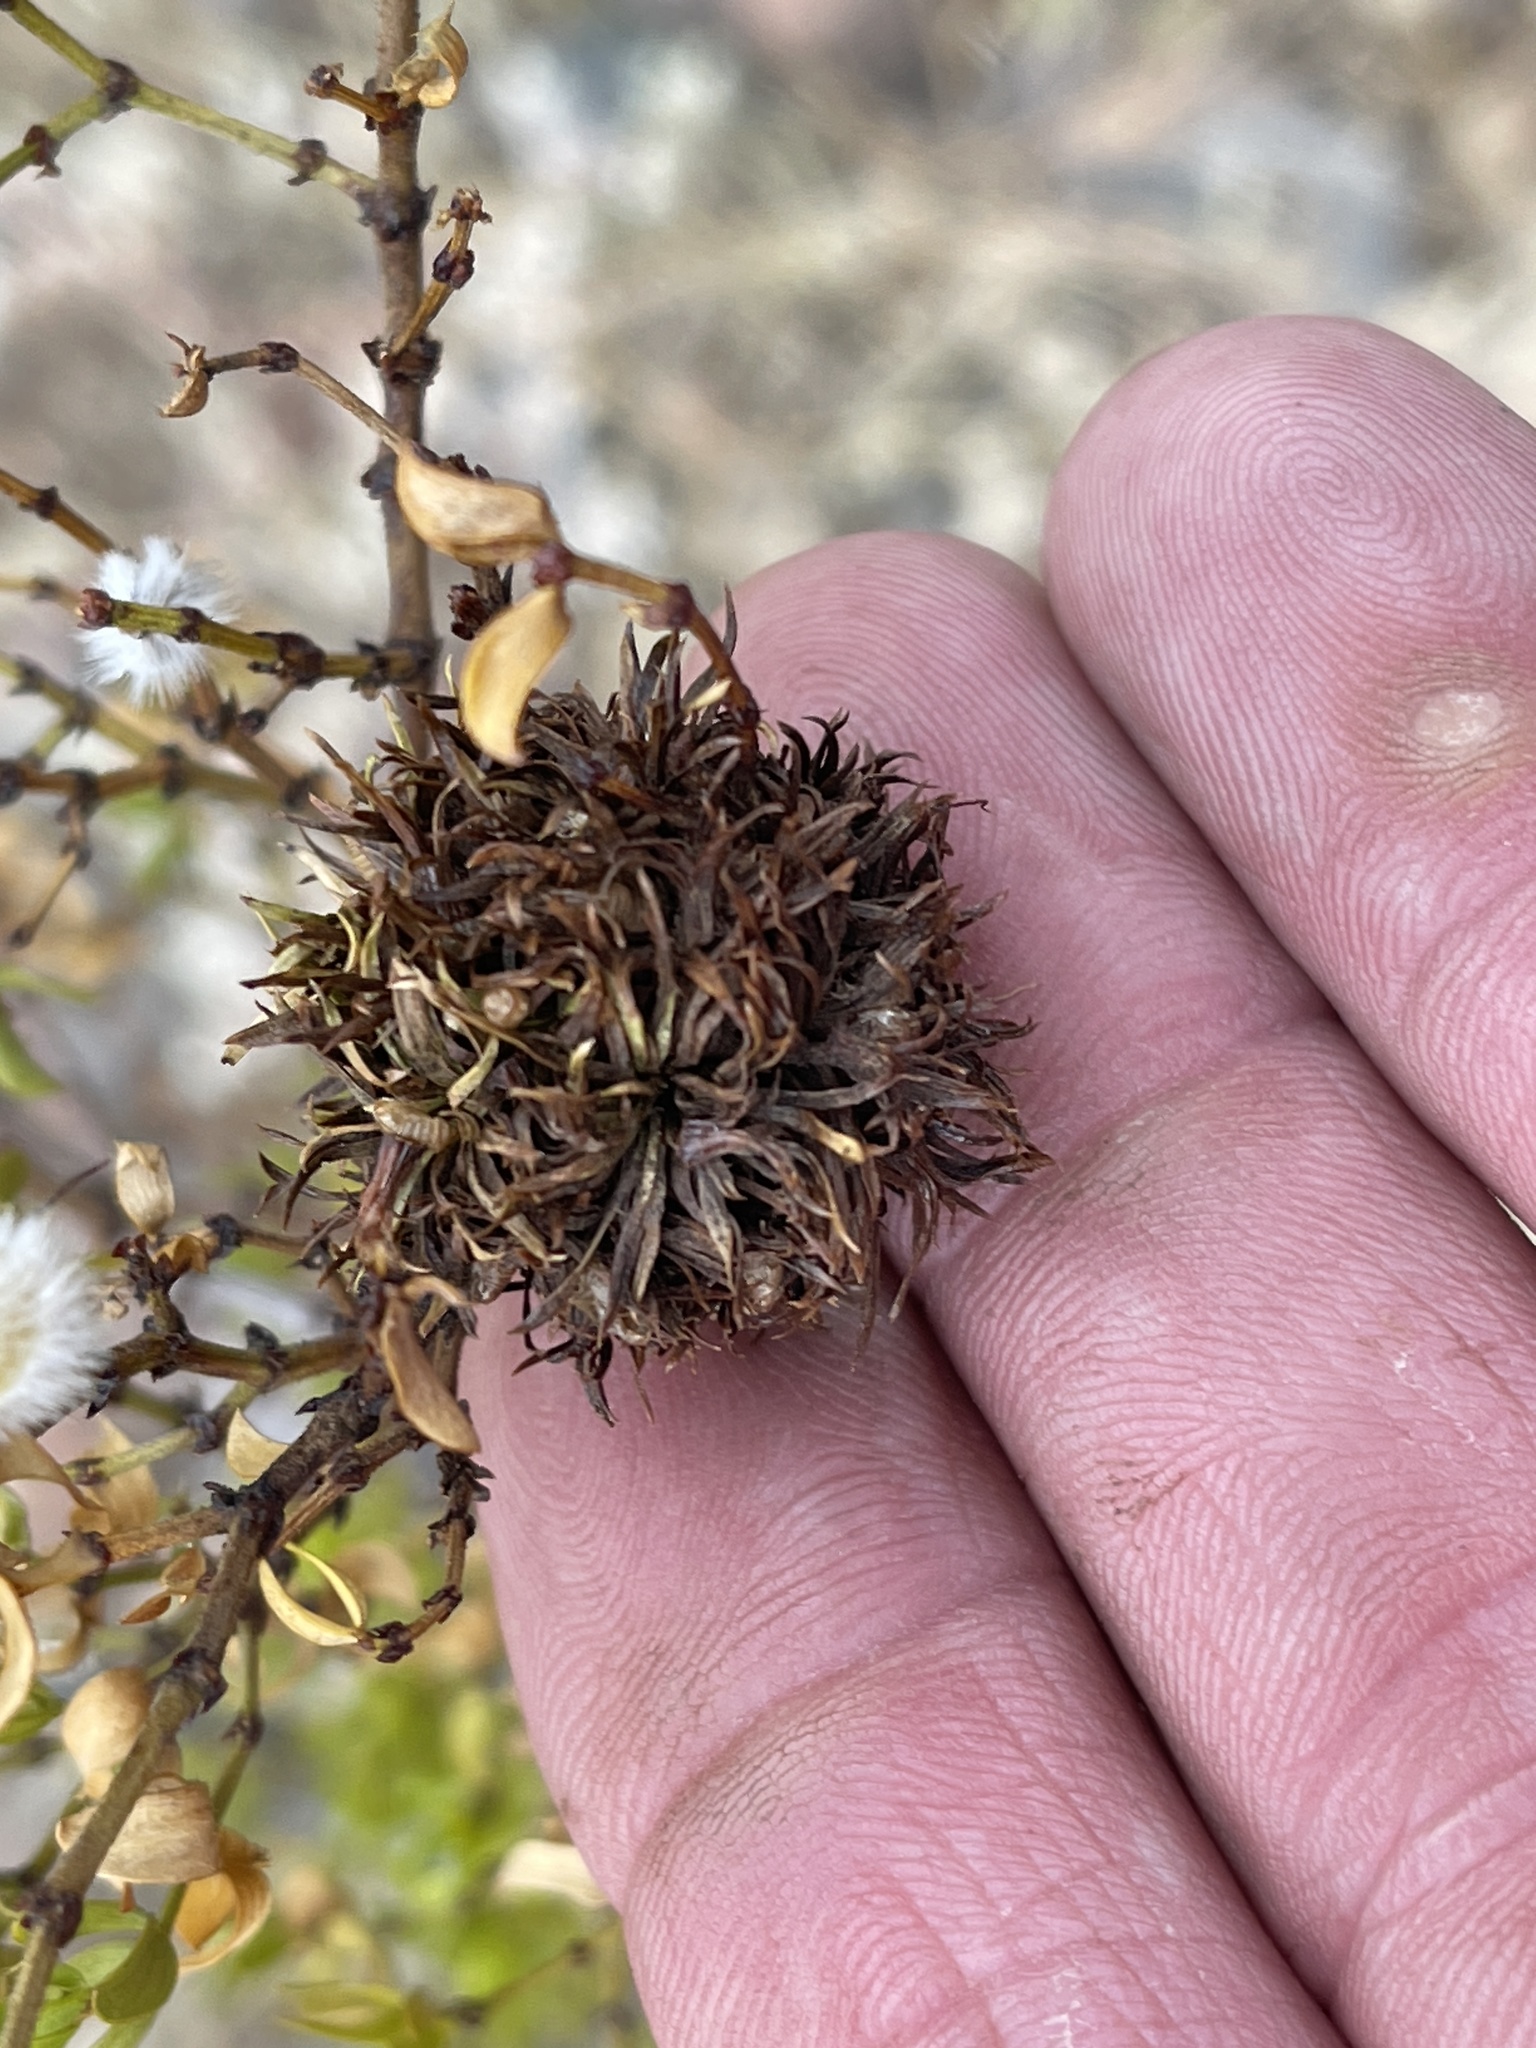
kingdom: Animalia
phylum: Arthropoda
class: Insecta
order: Diptera
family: Cecidomyiidae
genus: Asphondylia
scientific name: Asphondylia auripila
